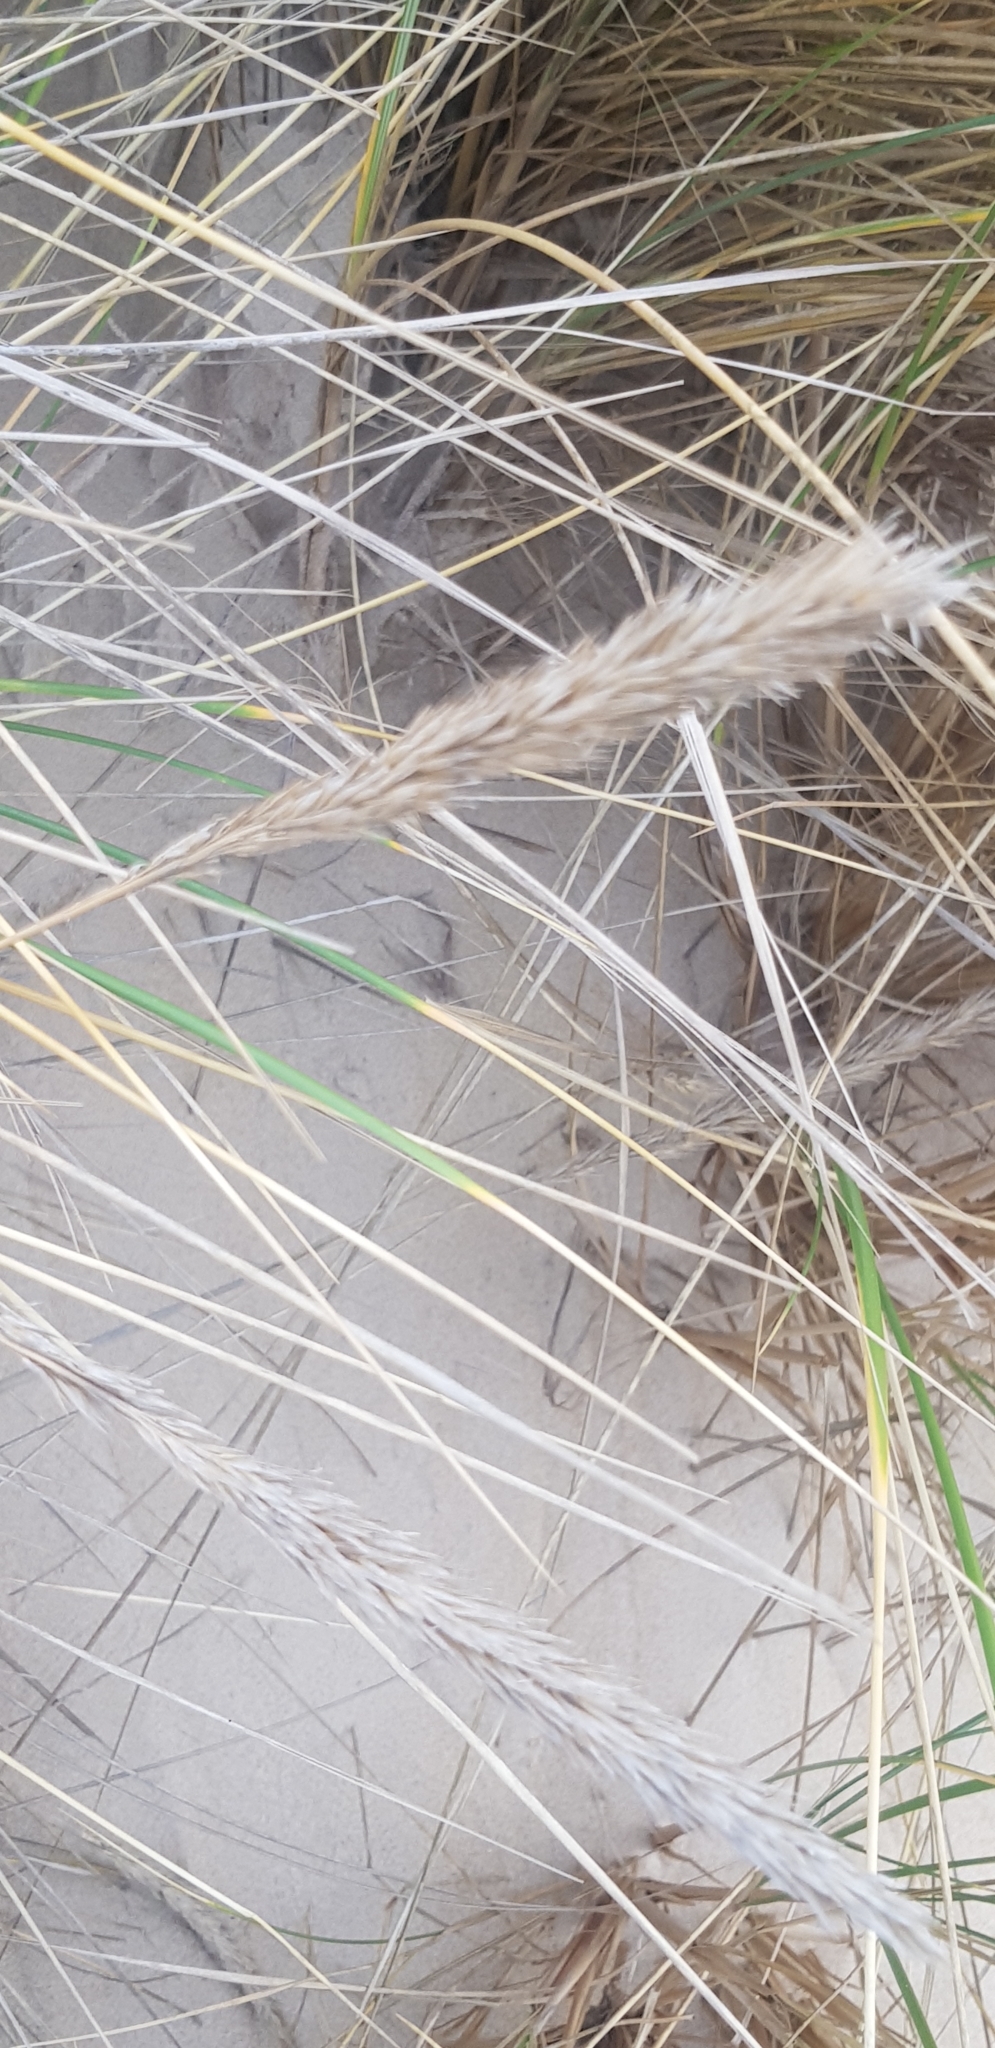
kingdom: Plantae
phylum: Tracheophyta
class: Liliopsida
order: Poales
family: Poaceae
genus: Calamagrostis
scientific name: Calamagrostis arenaria
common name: European beachgrass
